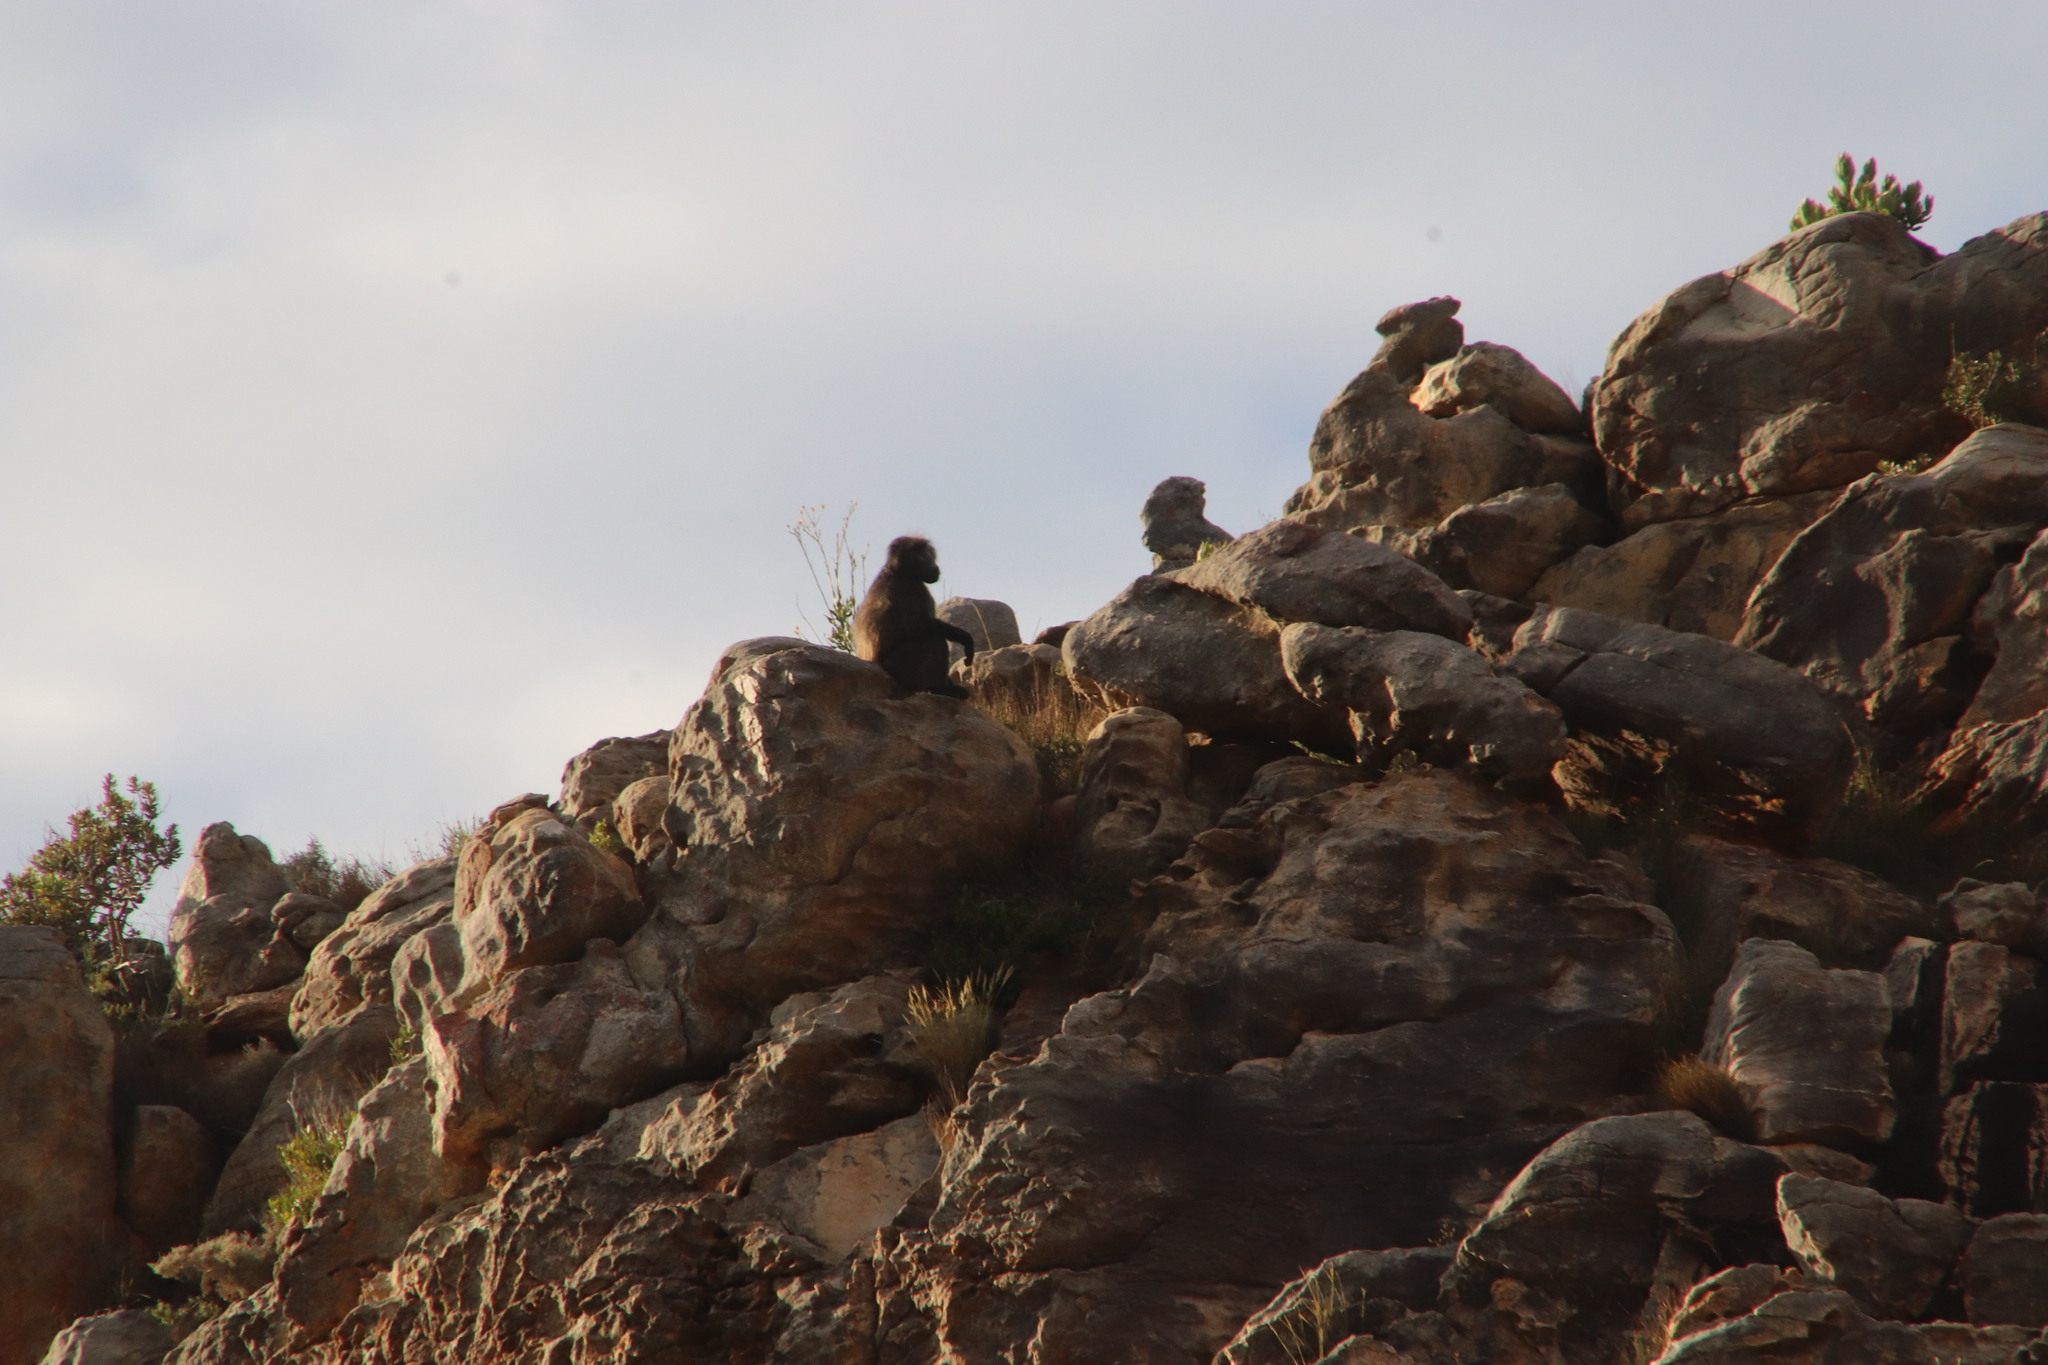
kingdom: Animalia
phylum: Chordata
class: Mammalia
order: Primates
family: Cercopithecidae
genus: Papio
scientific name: Papio ursinus
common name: Chacma baboon
